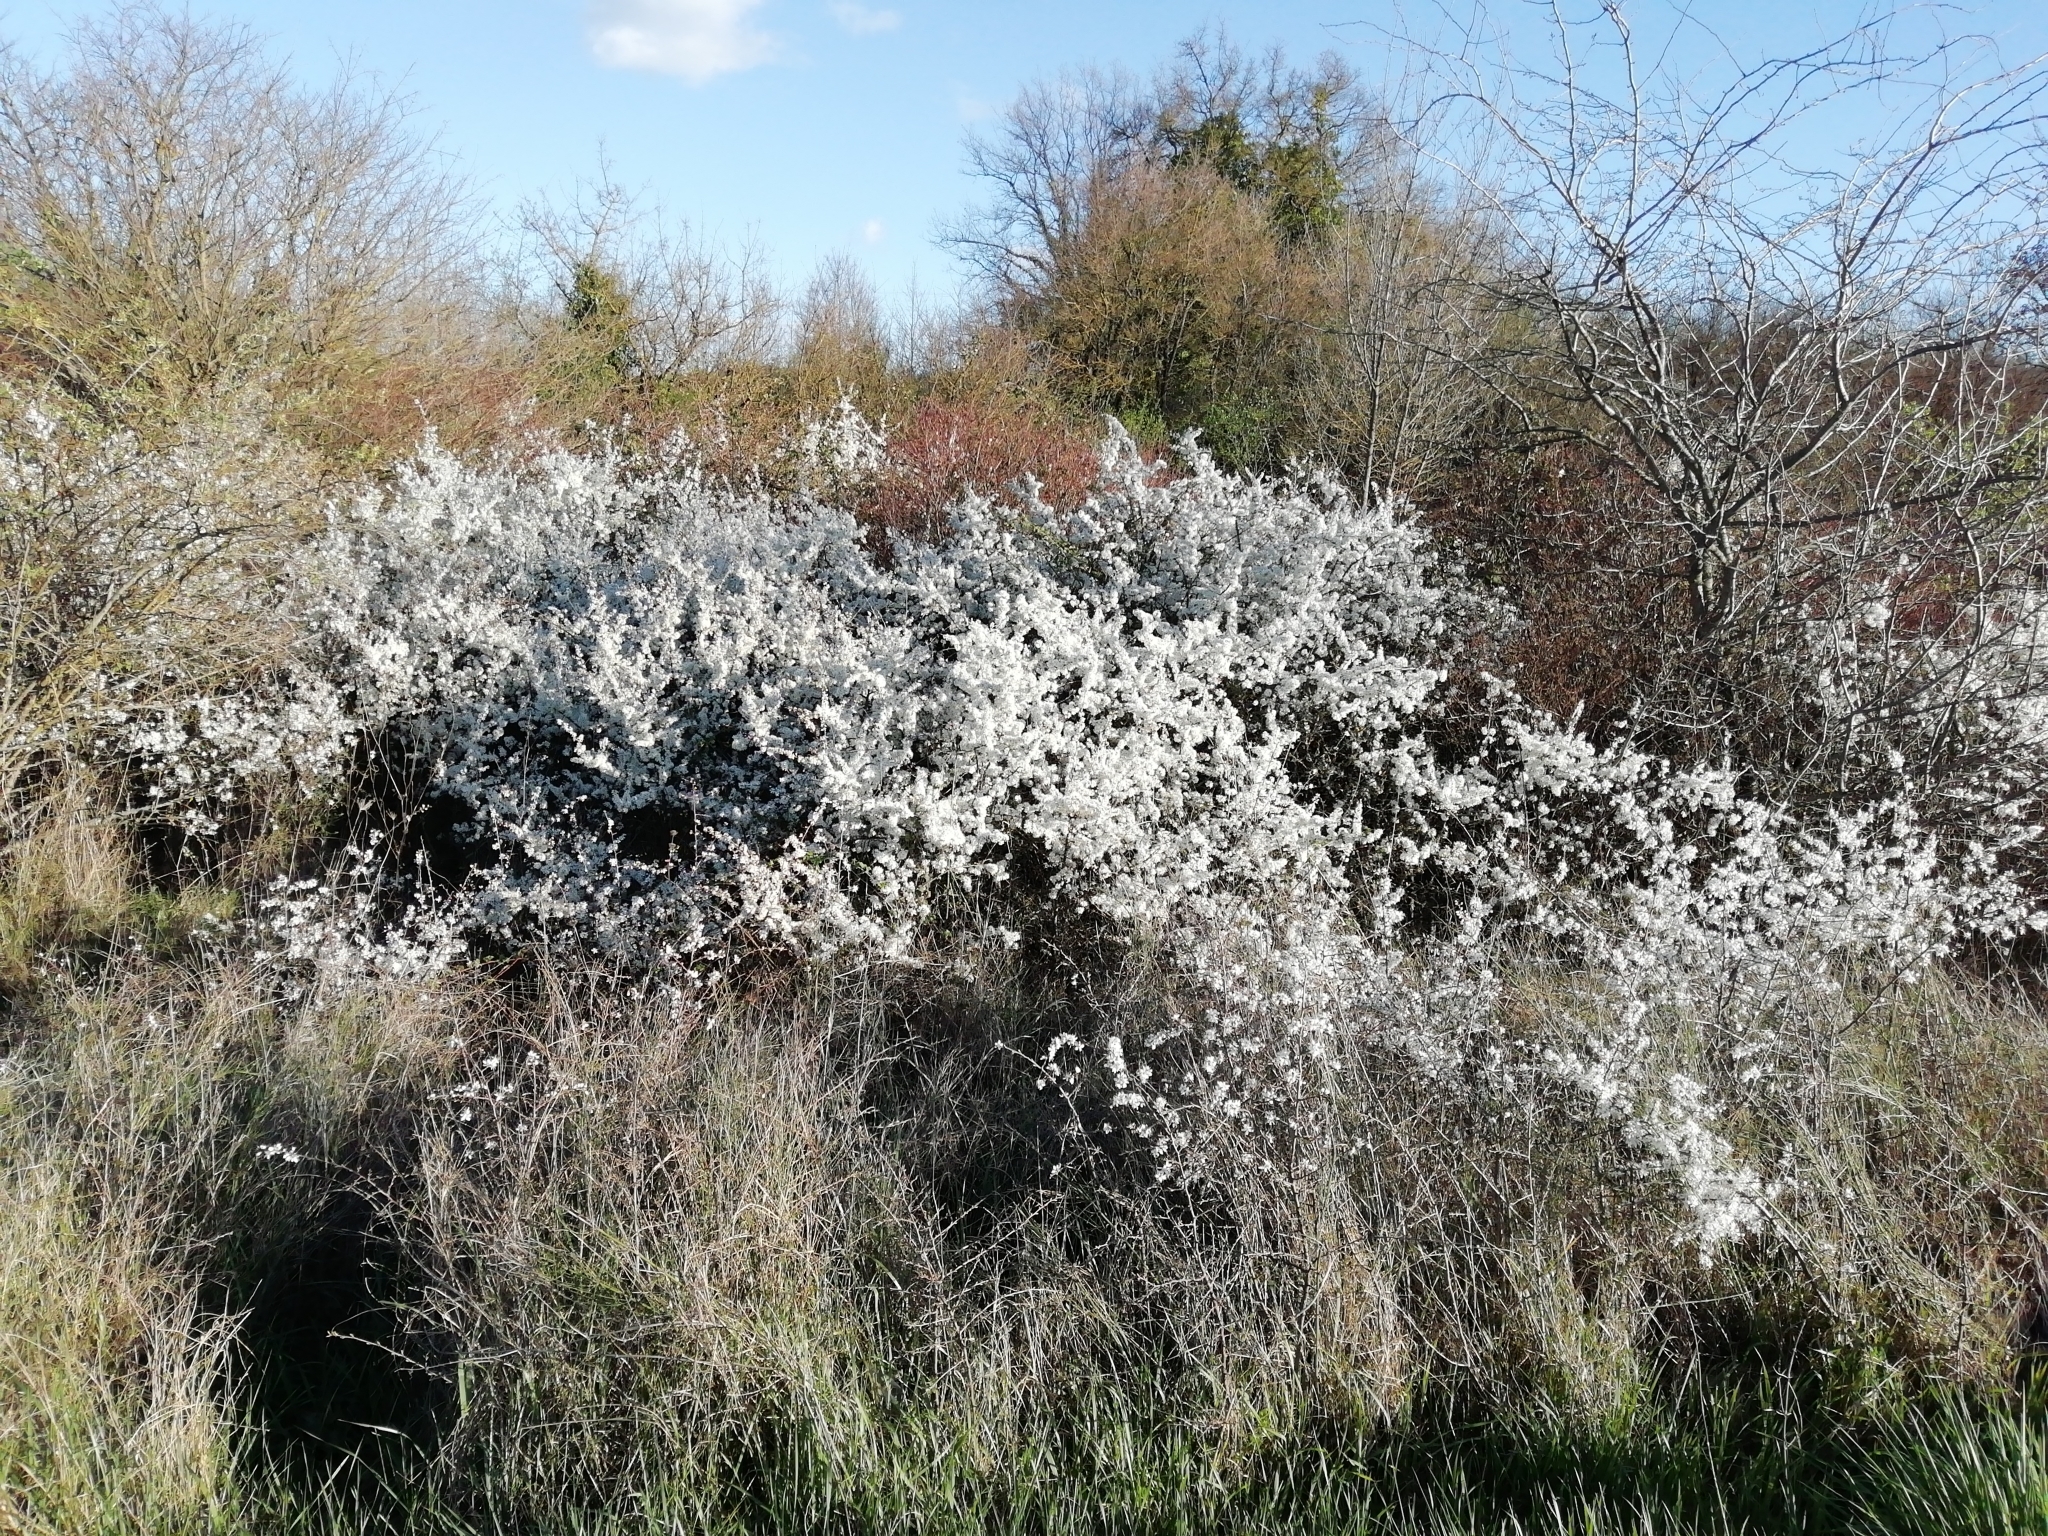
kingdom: Plantae
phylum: Tracheophyta
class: Magnoliopsida
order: Rosales
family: Rosaceae
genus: Prunus
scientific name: Prunus spinosa
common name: Blackthorn
